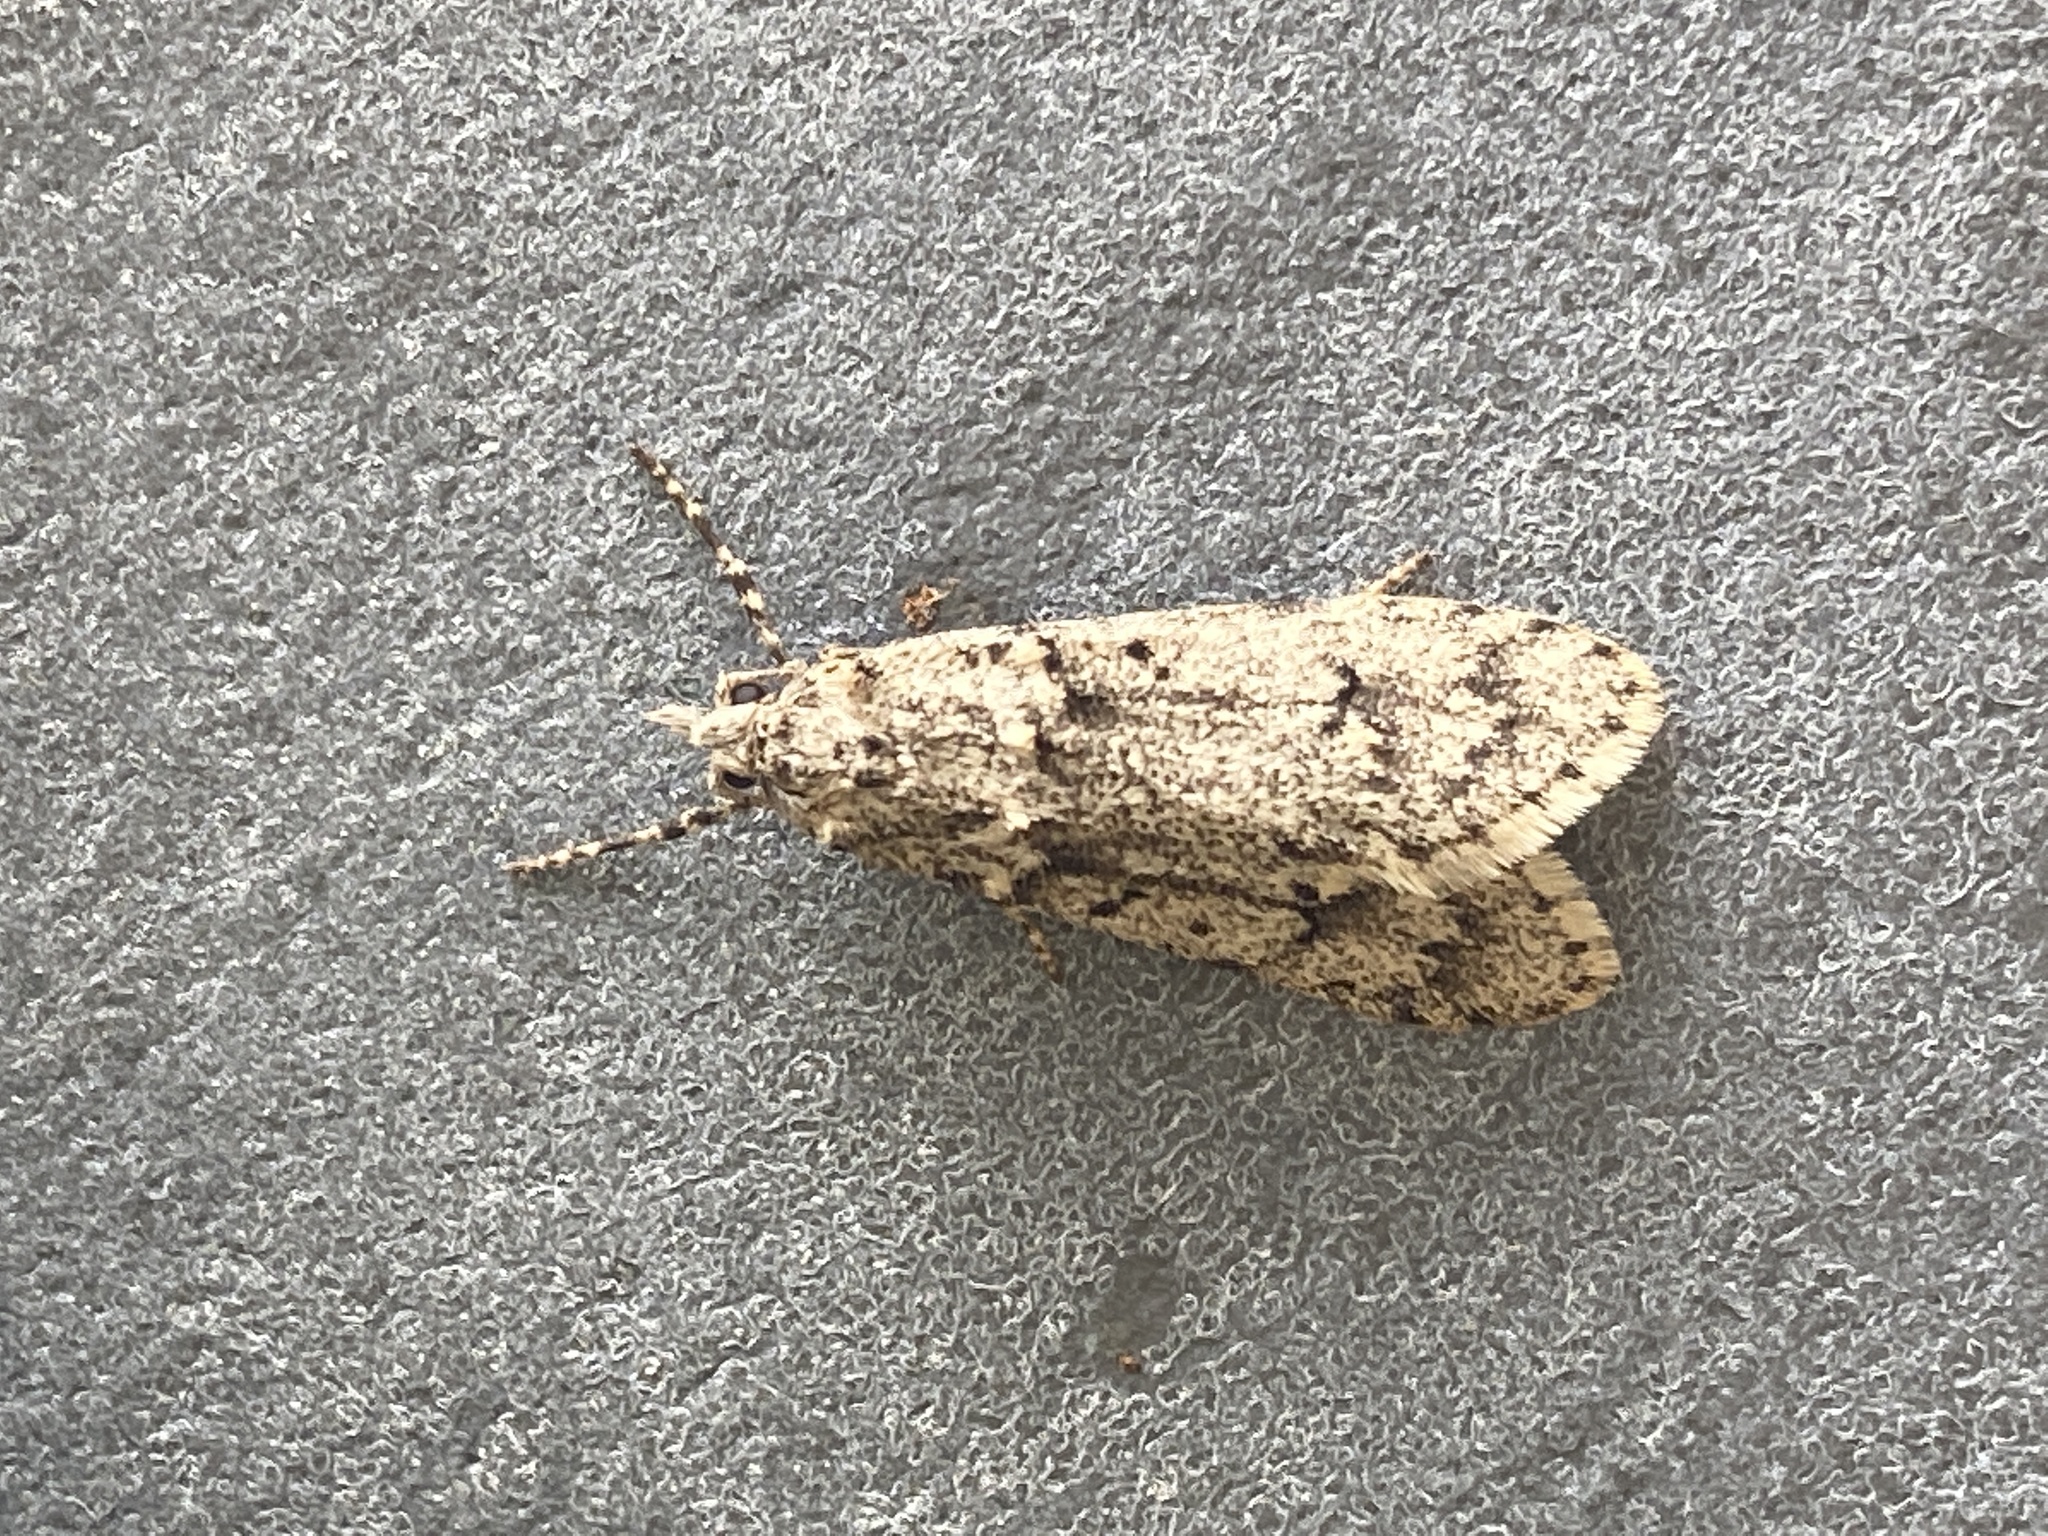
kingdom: Animalia
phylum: Arthropoda
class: Insecta
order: Lepidoptera
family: Lypusidae
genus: Diurnea
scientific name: Diurnea fagella
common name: March tubic
